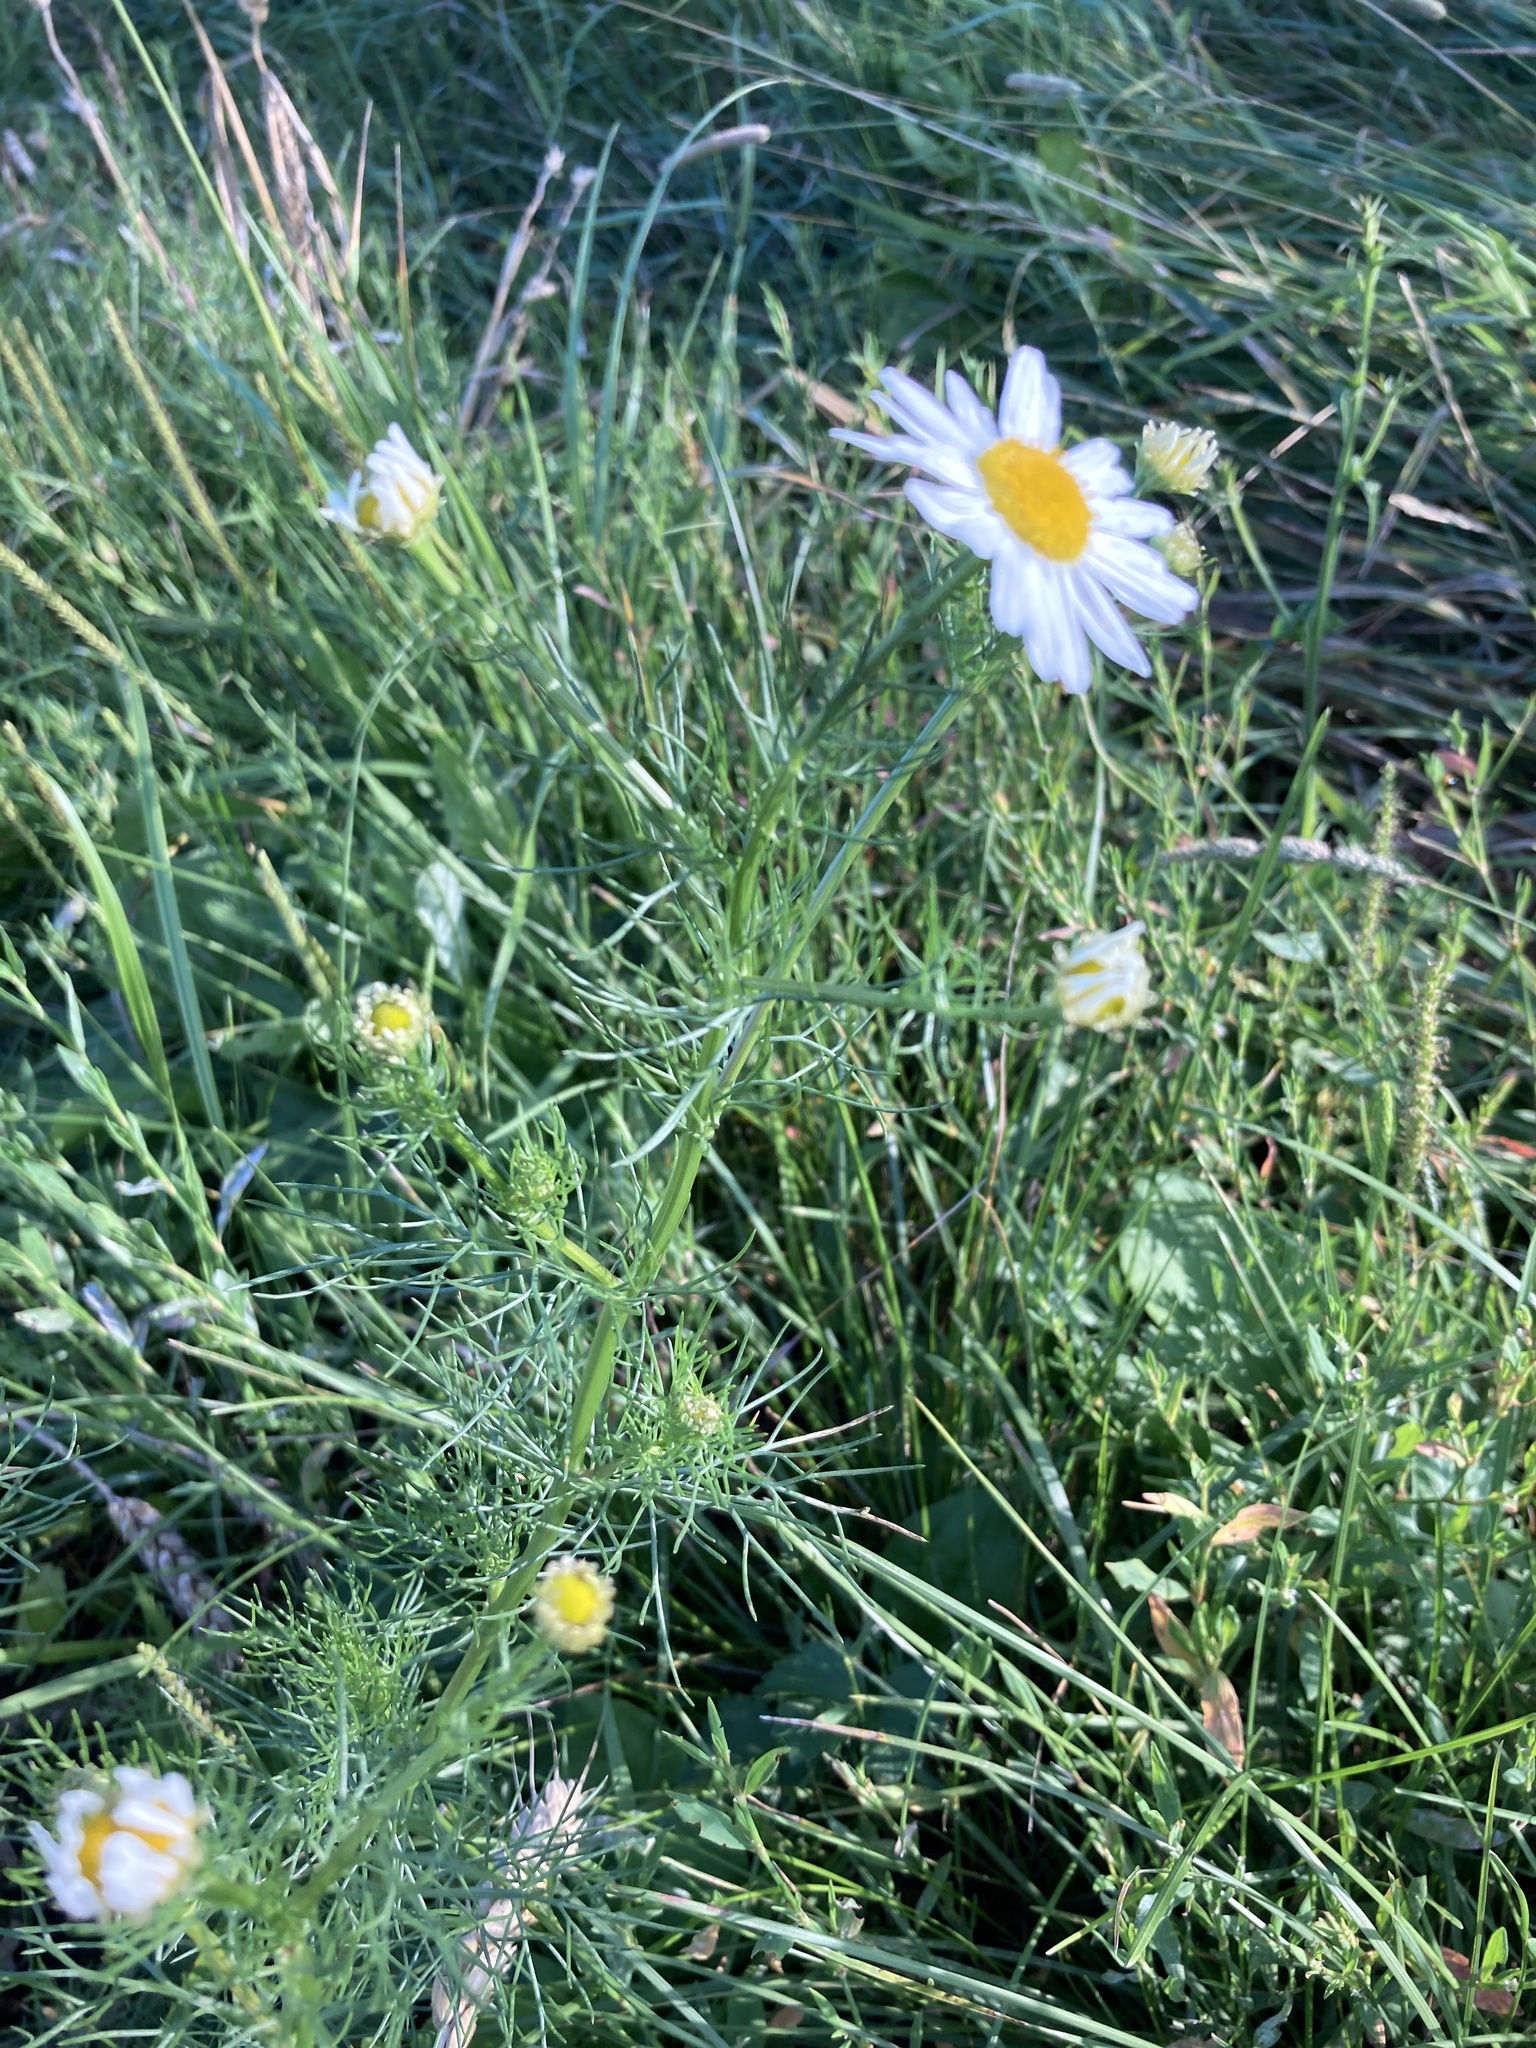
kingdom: Plantae
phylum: Tracheophyta
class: Magnoliopsida
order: Asterales
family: Asteraceae
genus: Tripleurospermum
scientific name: Tripleurospermum inodorum
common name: Scentless mayweed
